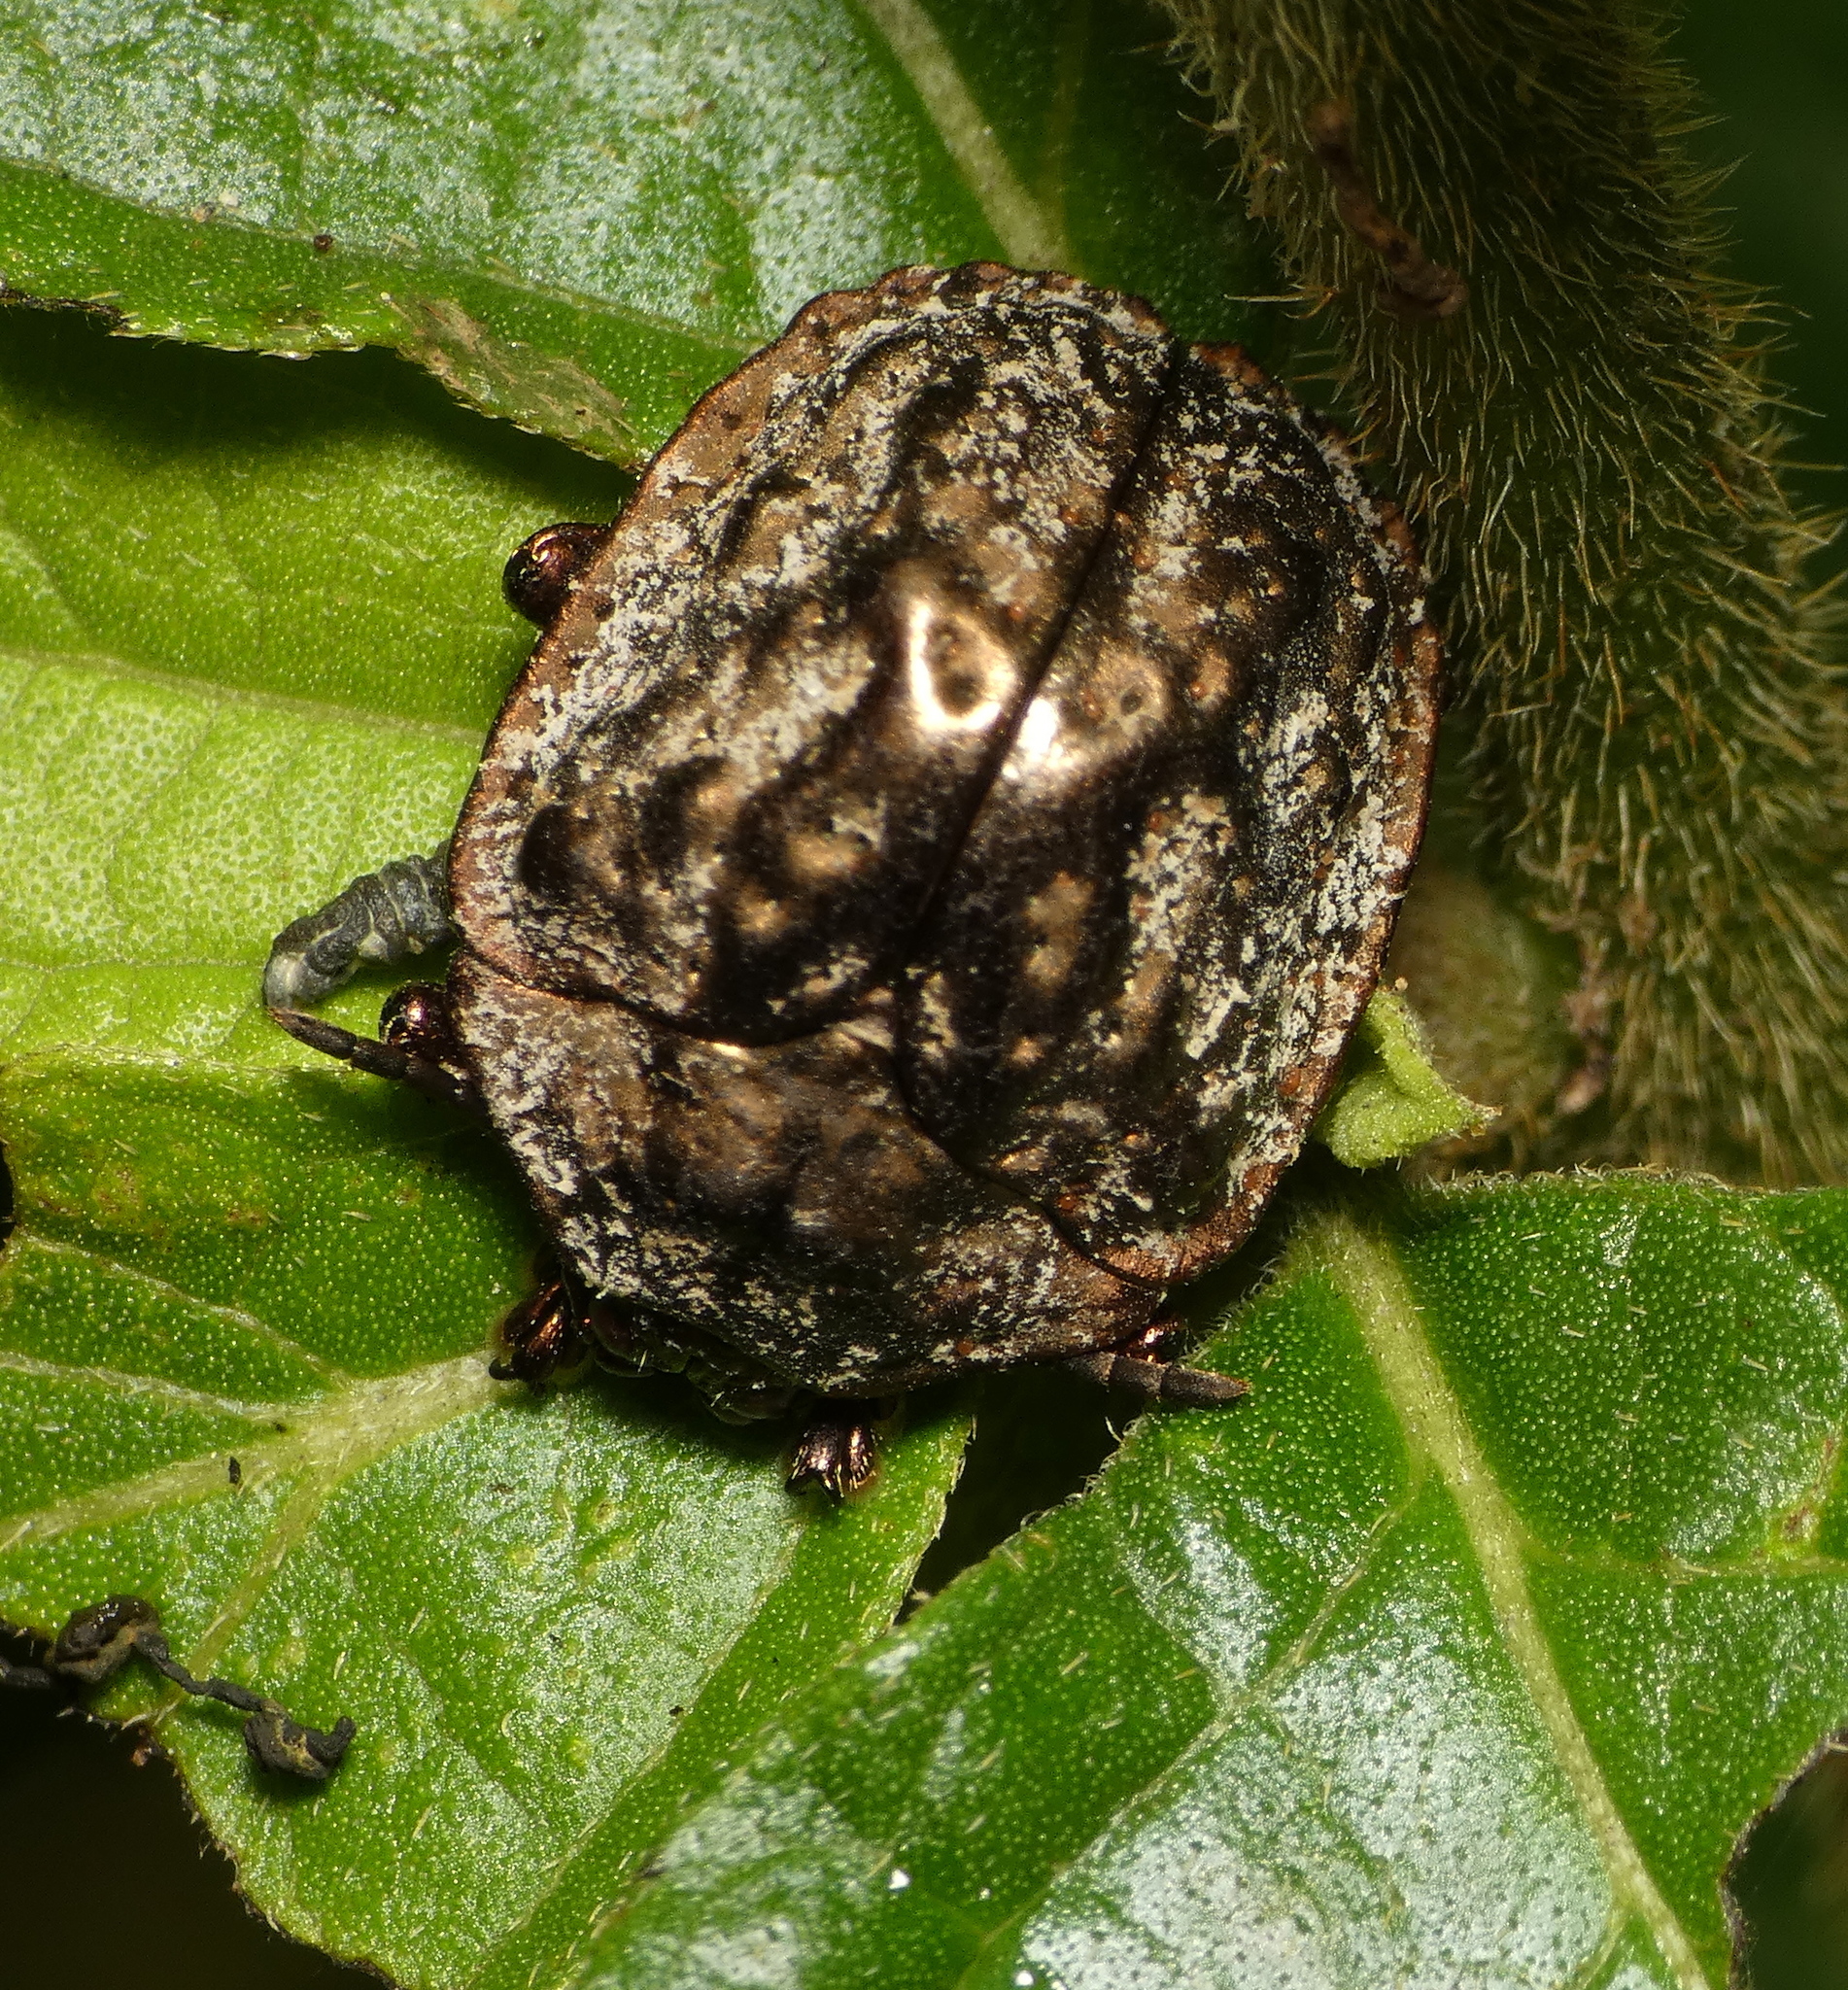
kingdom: Animalia
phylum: Arthropoda
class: Insecta
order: Coleoptera
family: Chrysomelidae
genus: Polychalca
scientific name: Polychalca aerea
